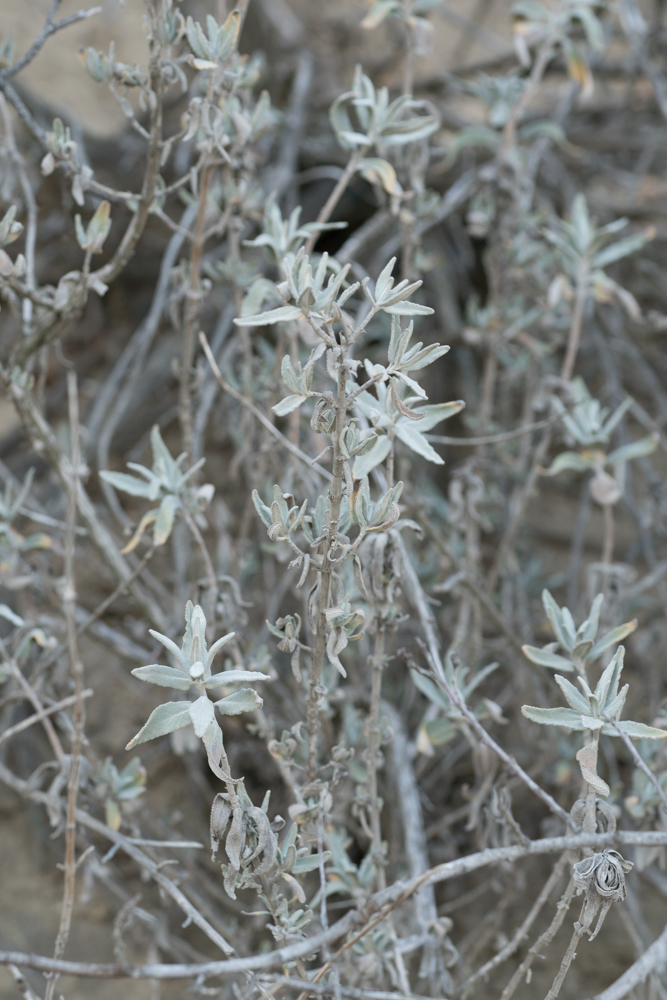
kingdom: Plantae
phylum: Tracheophyta
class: Magnoliopsida
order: Lamiales
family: Lamiaceae
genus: Salvia
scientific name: Salvia leucophylla
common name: Purple sage
